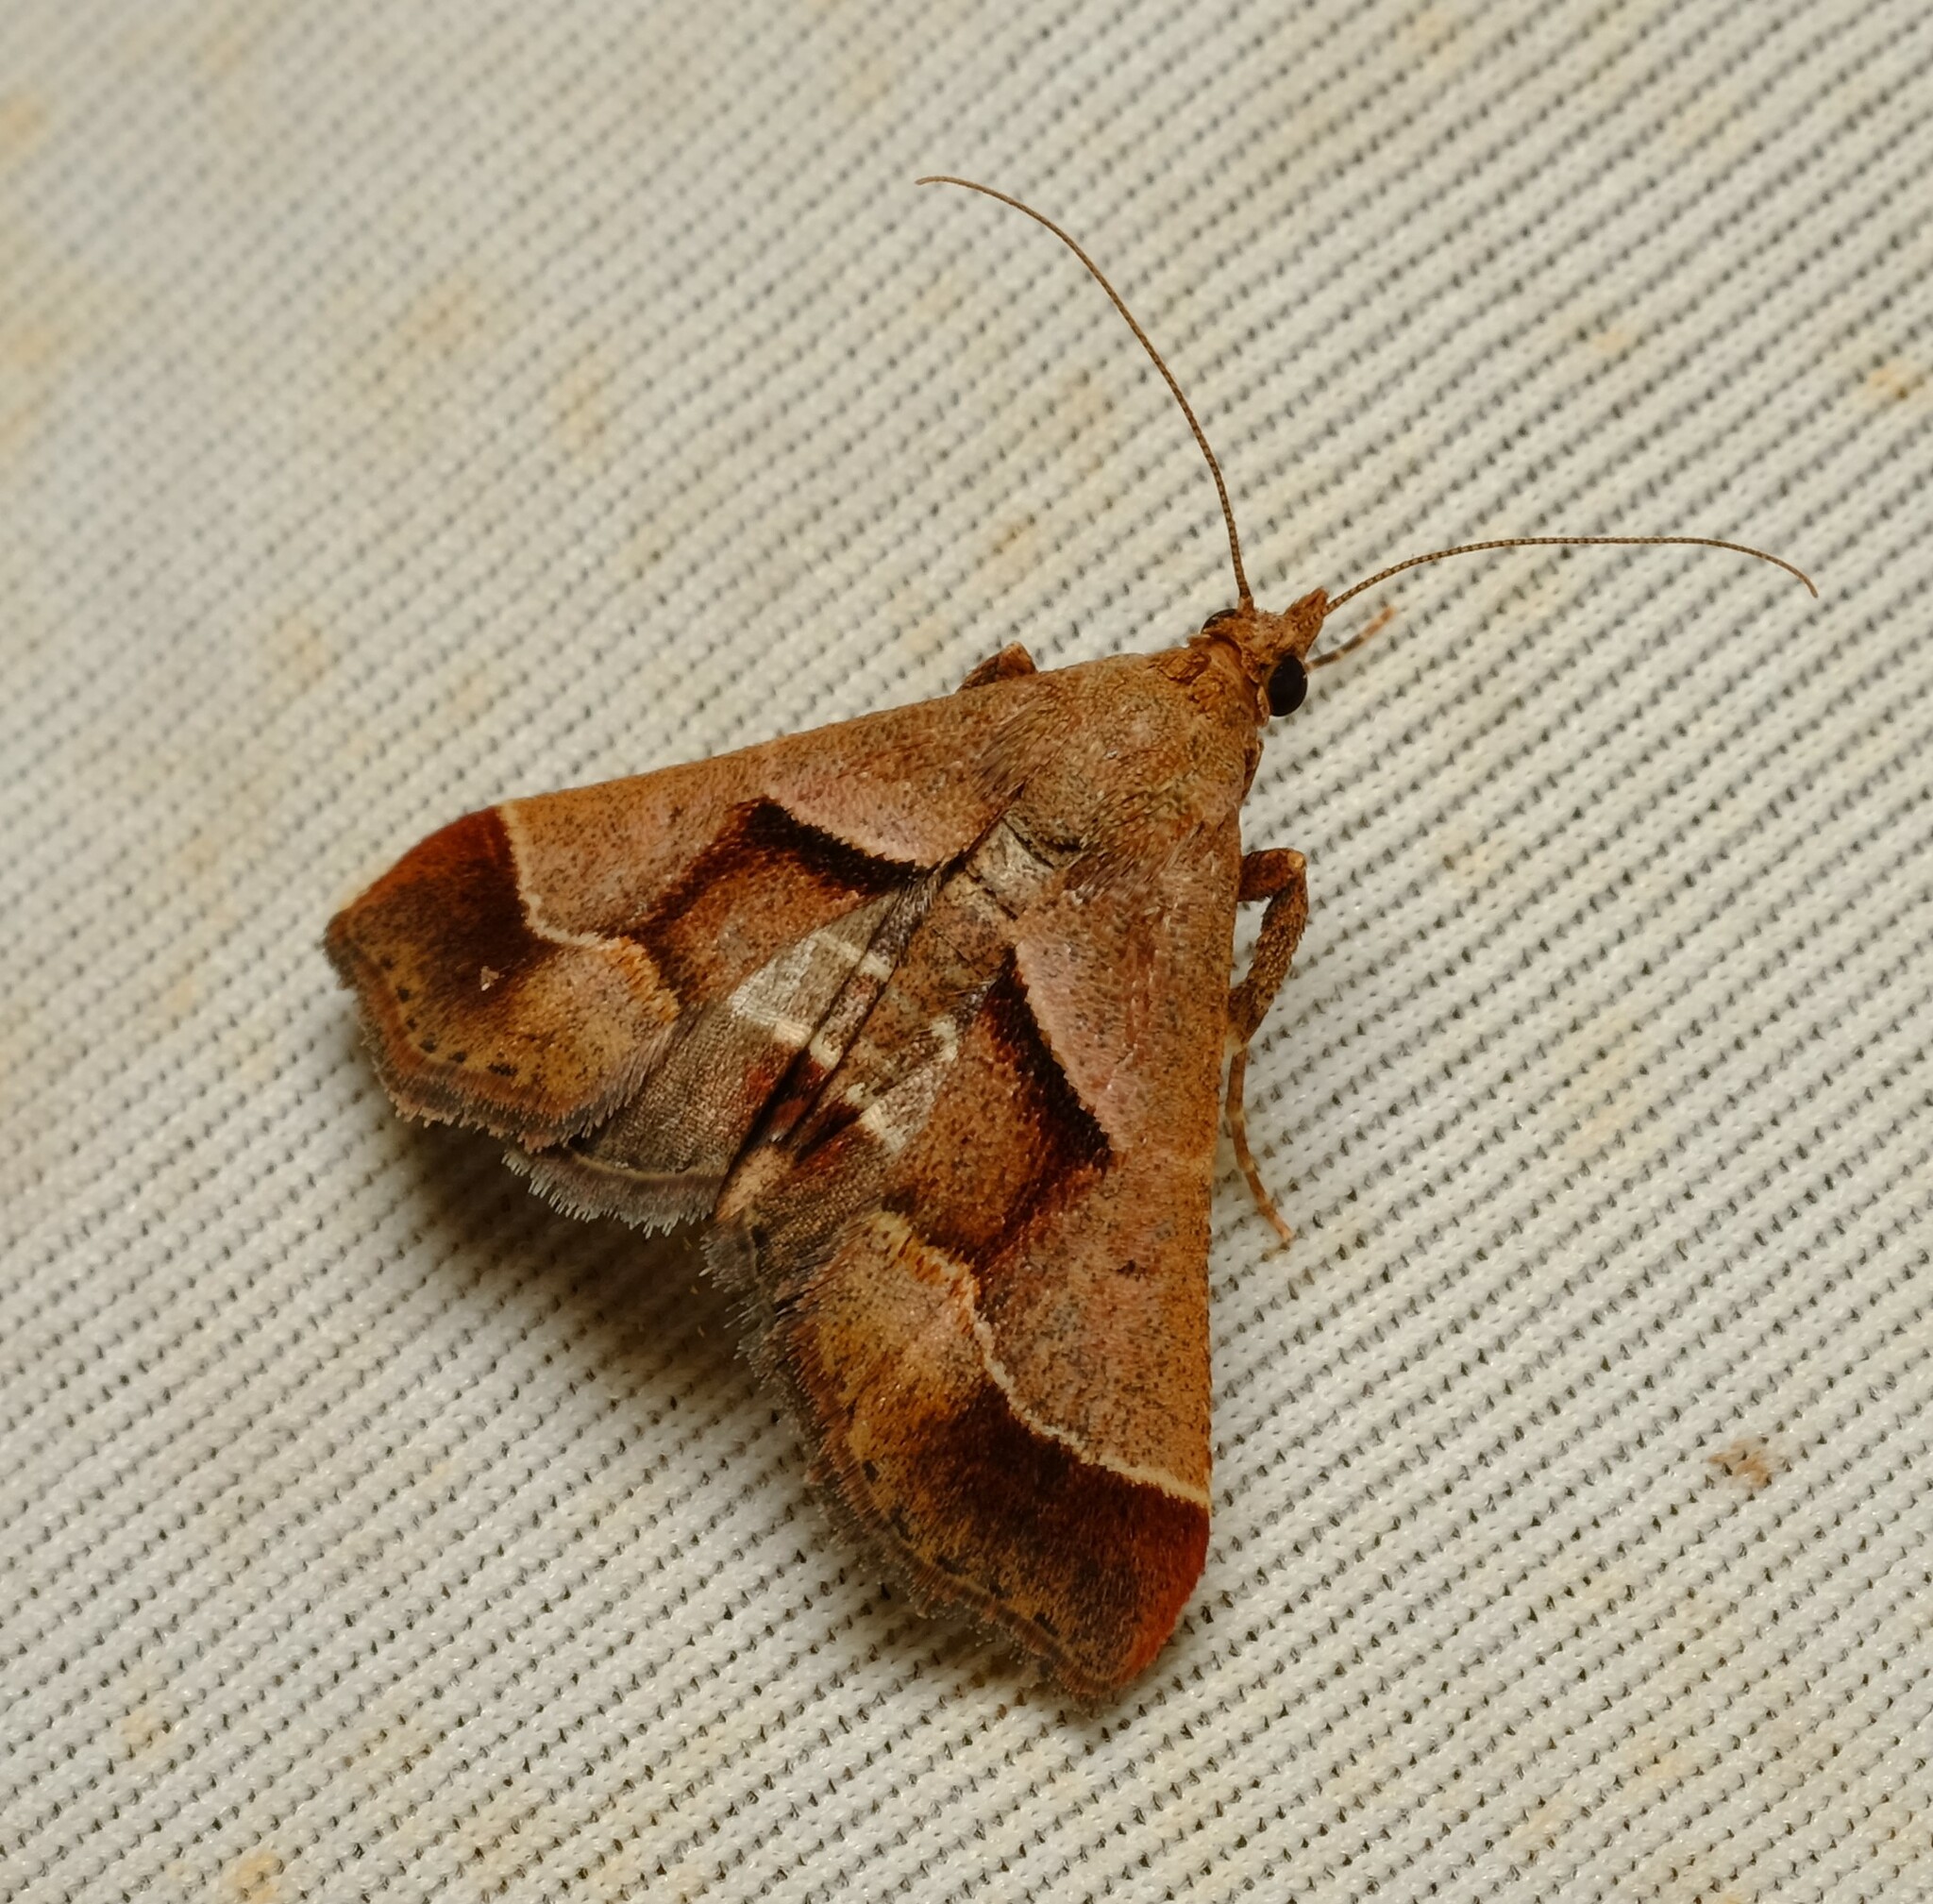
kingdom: Animalia
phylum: Arthropoda
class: Insecta
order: Lepidoptera
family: Pyralidae
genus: Gauna
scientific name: Gauna aegusalis
